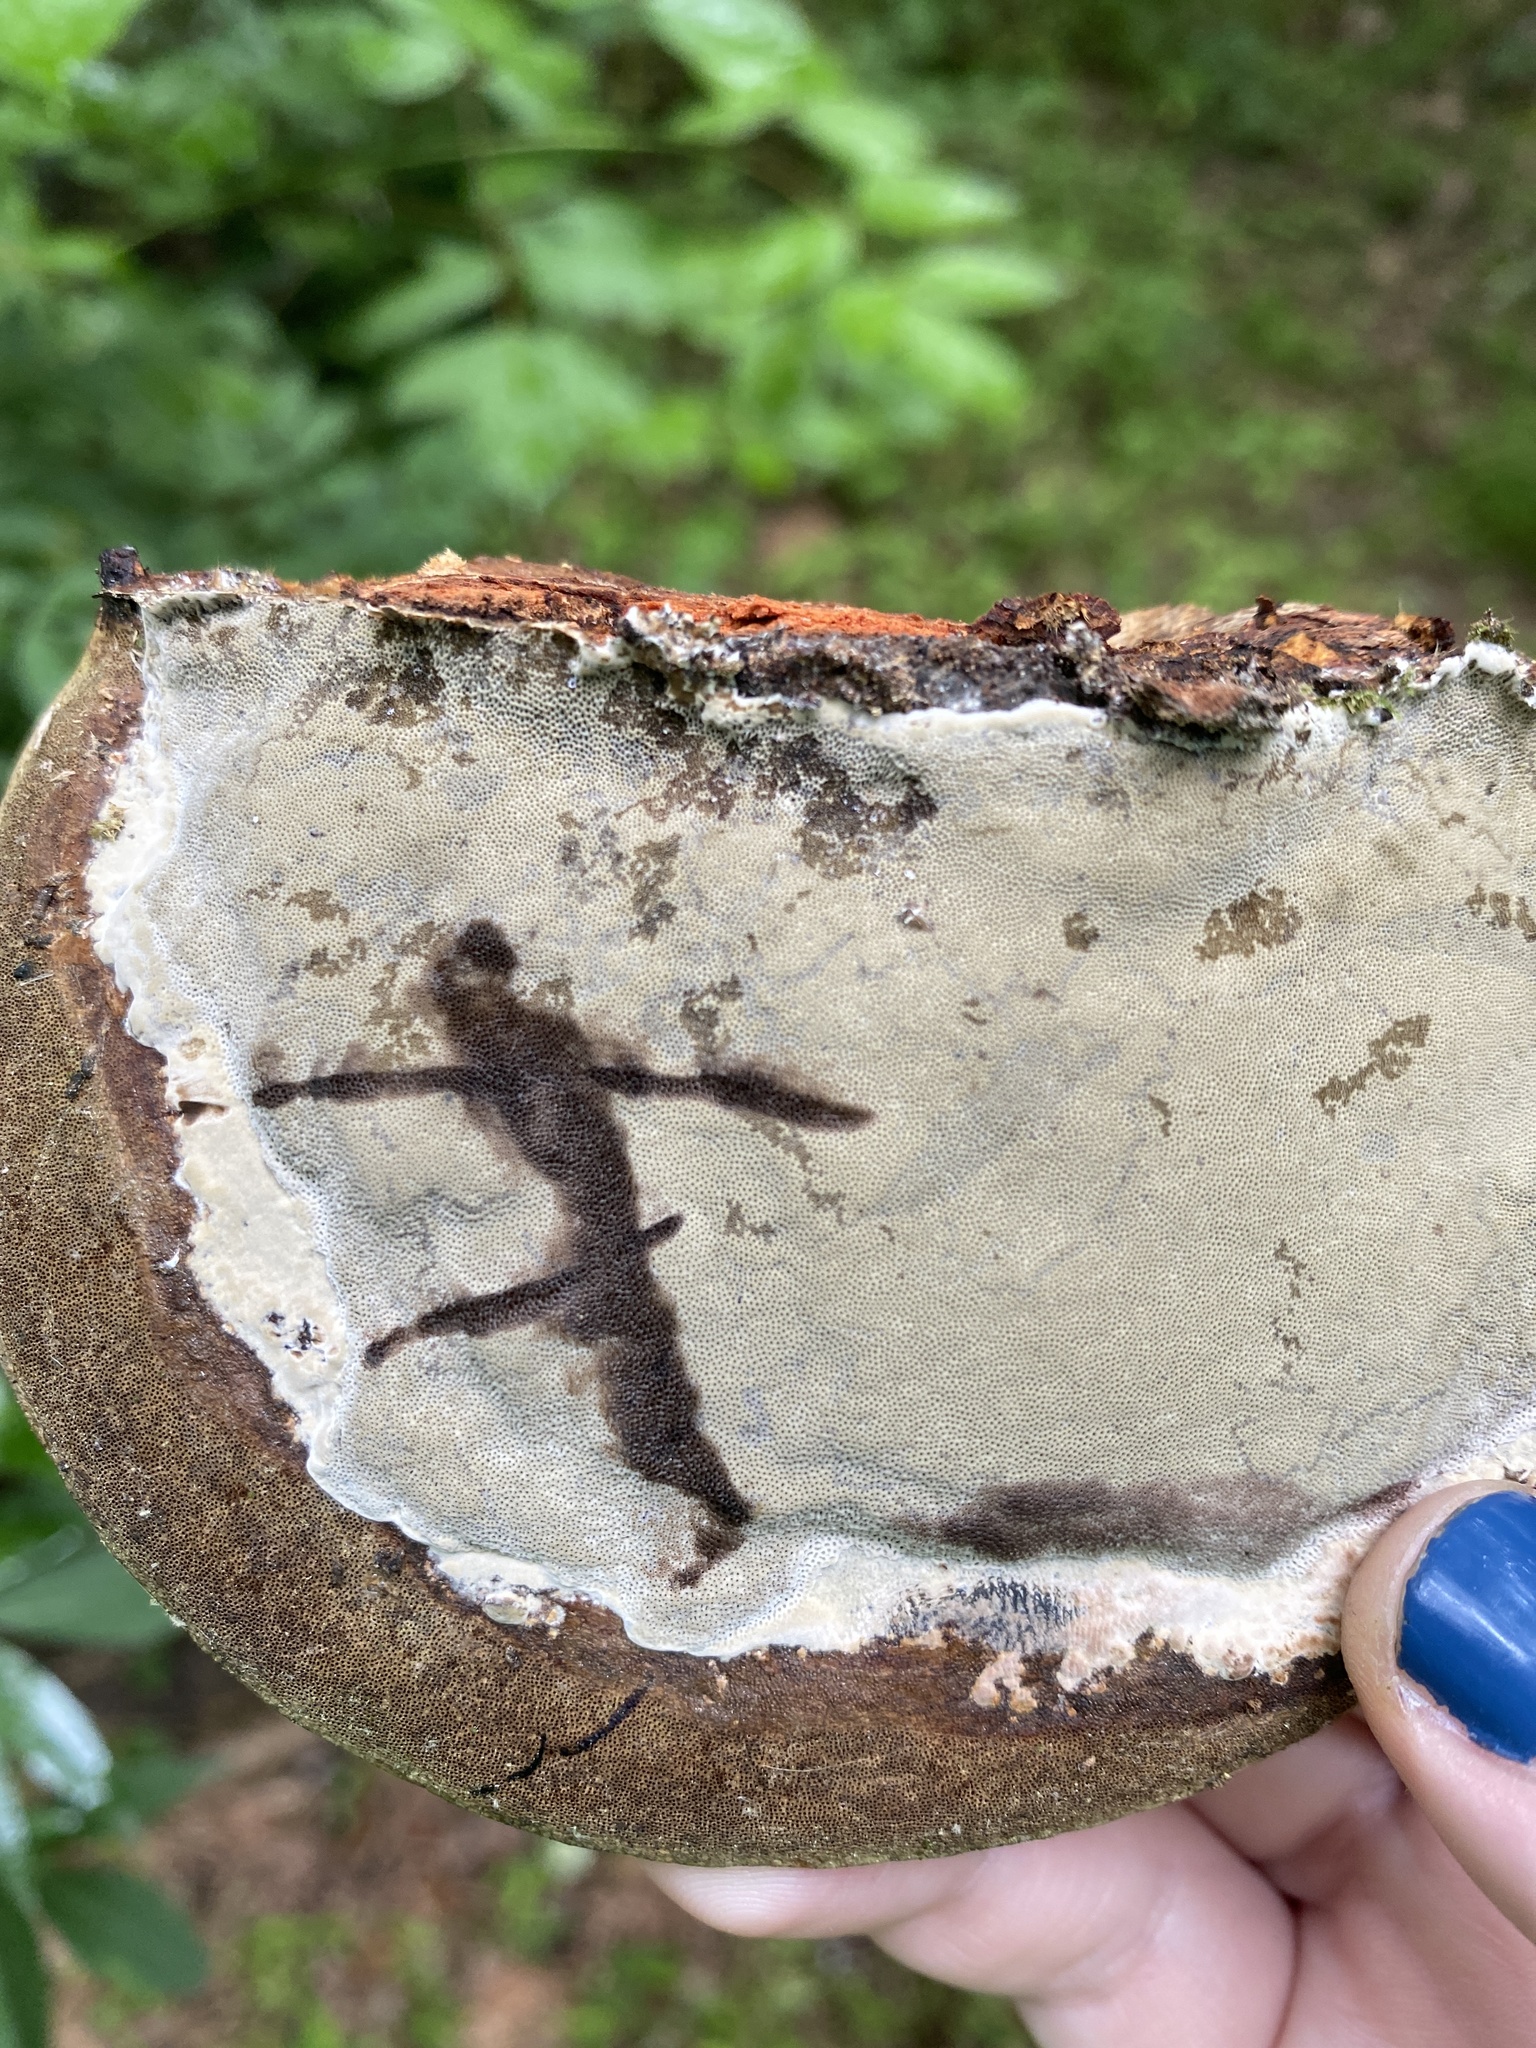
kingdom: Fungi
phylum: Basidiomycota
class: Agaricomycetes
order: Polyporales
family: Polyporaceae
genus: Fomes
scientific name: Fomes fasciatus
